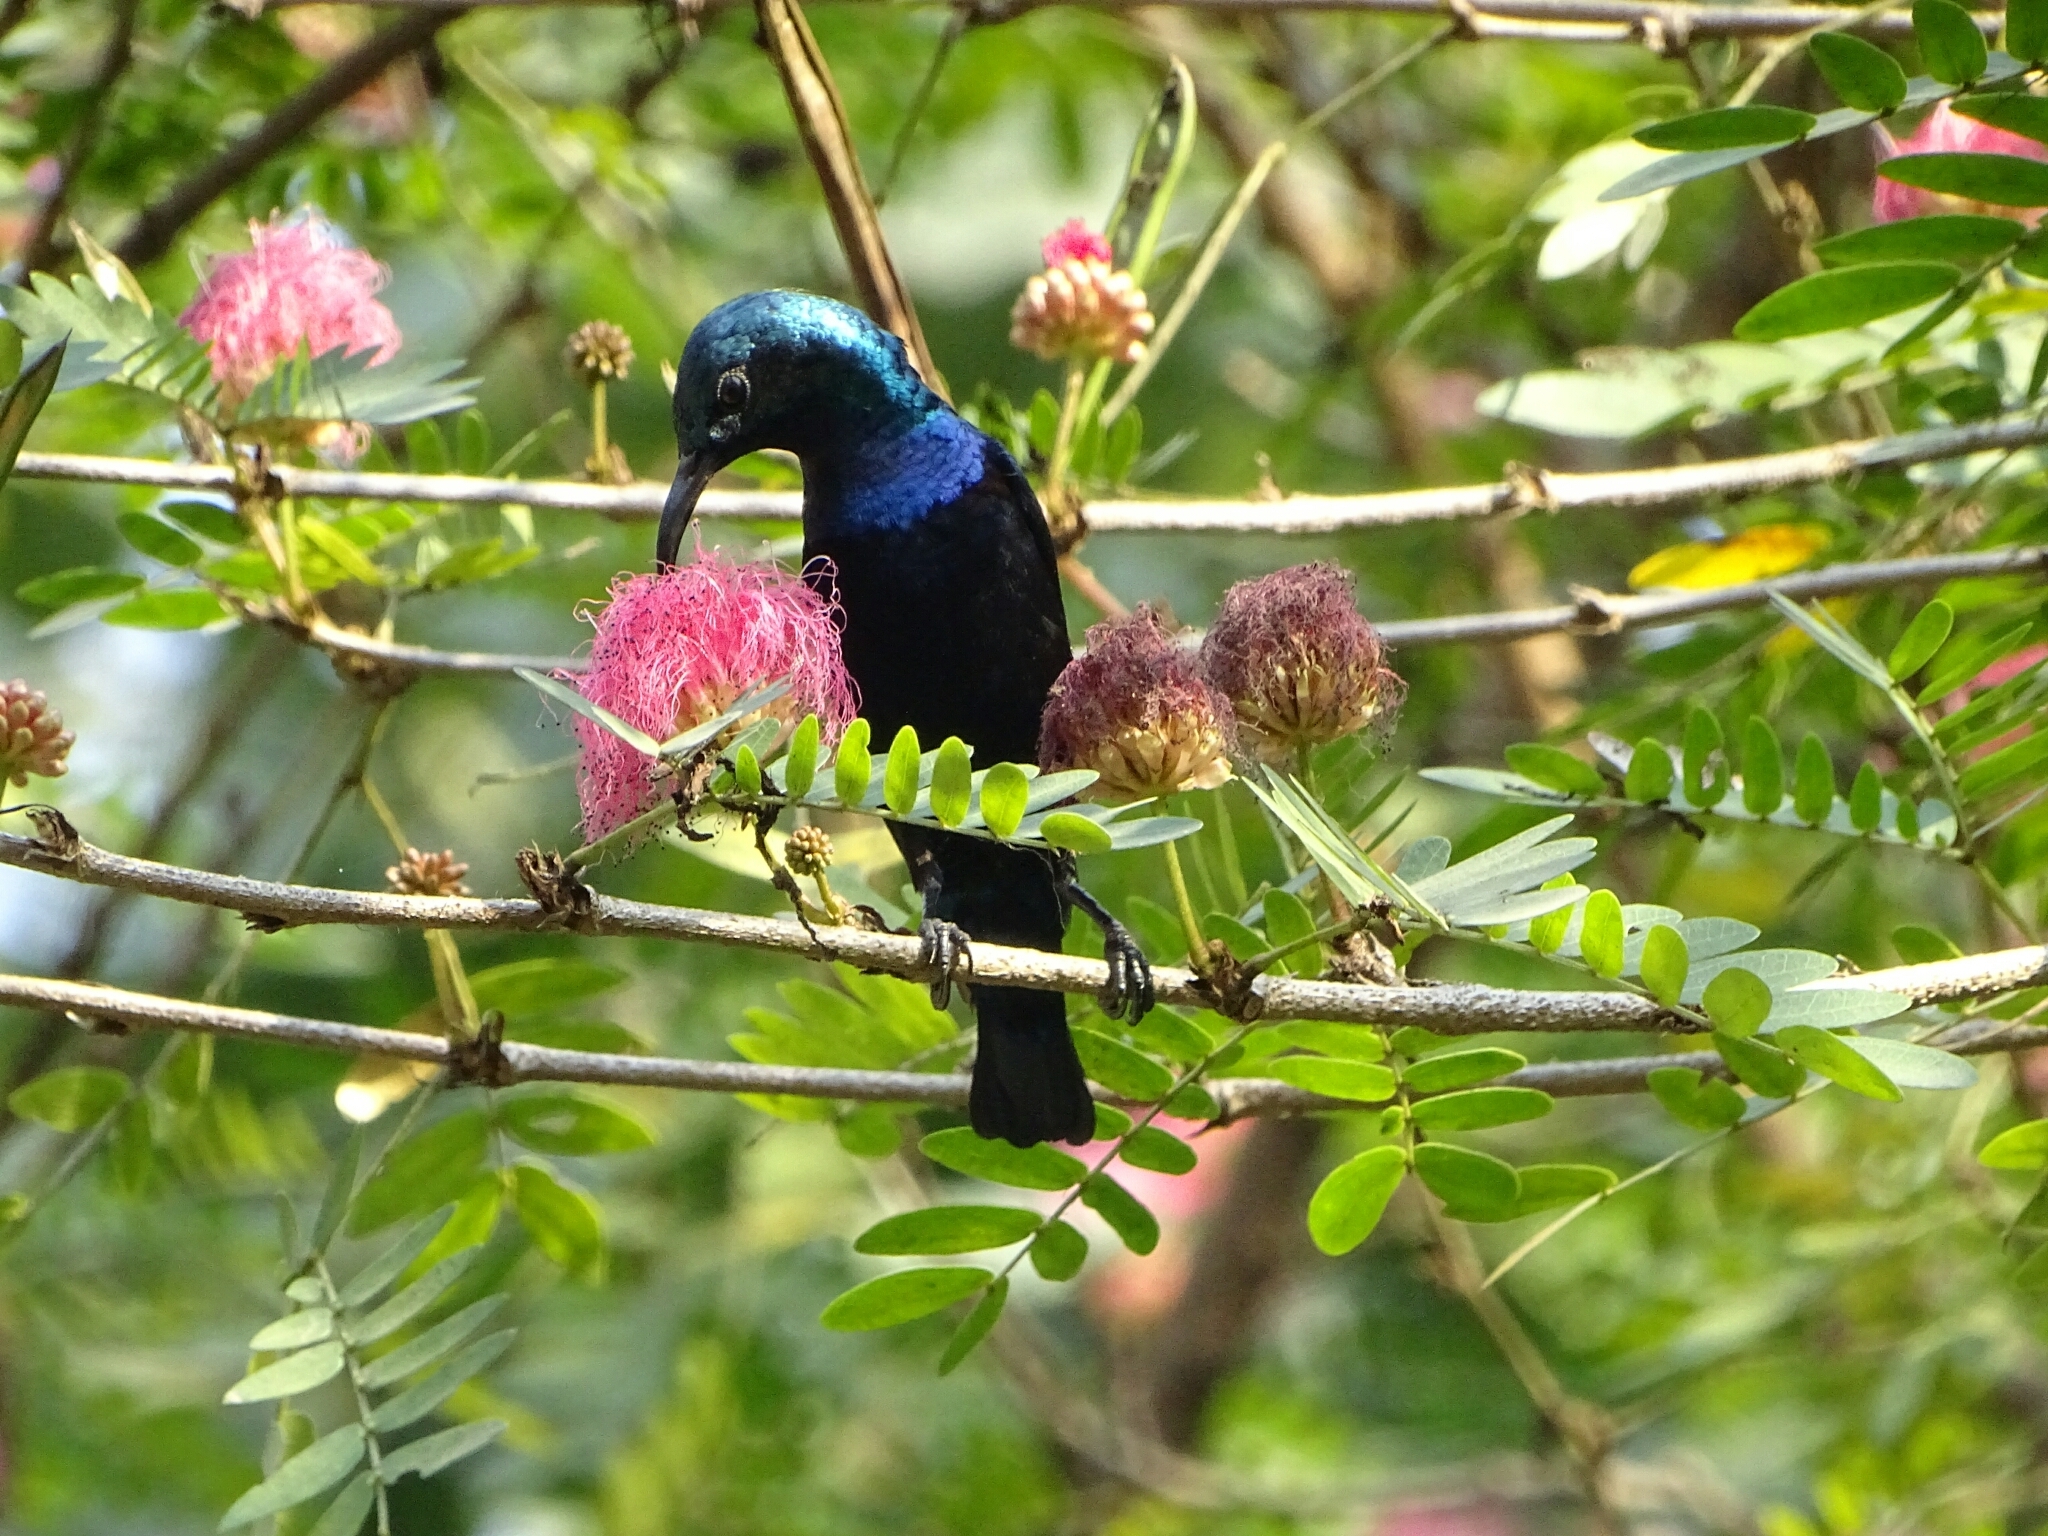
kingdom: Animalia
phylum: Chordata
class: Aves
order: Passeriformes
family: Nectariniidae
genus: Cinnyris
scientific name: Cinnyris asiaticus
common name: Purple sunbird
